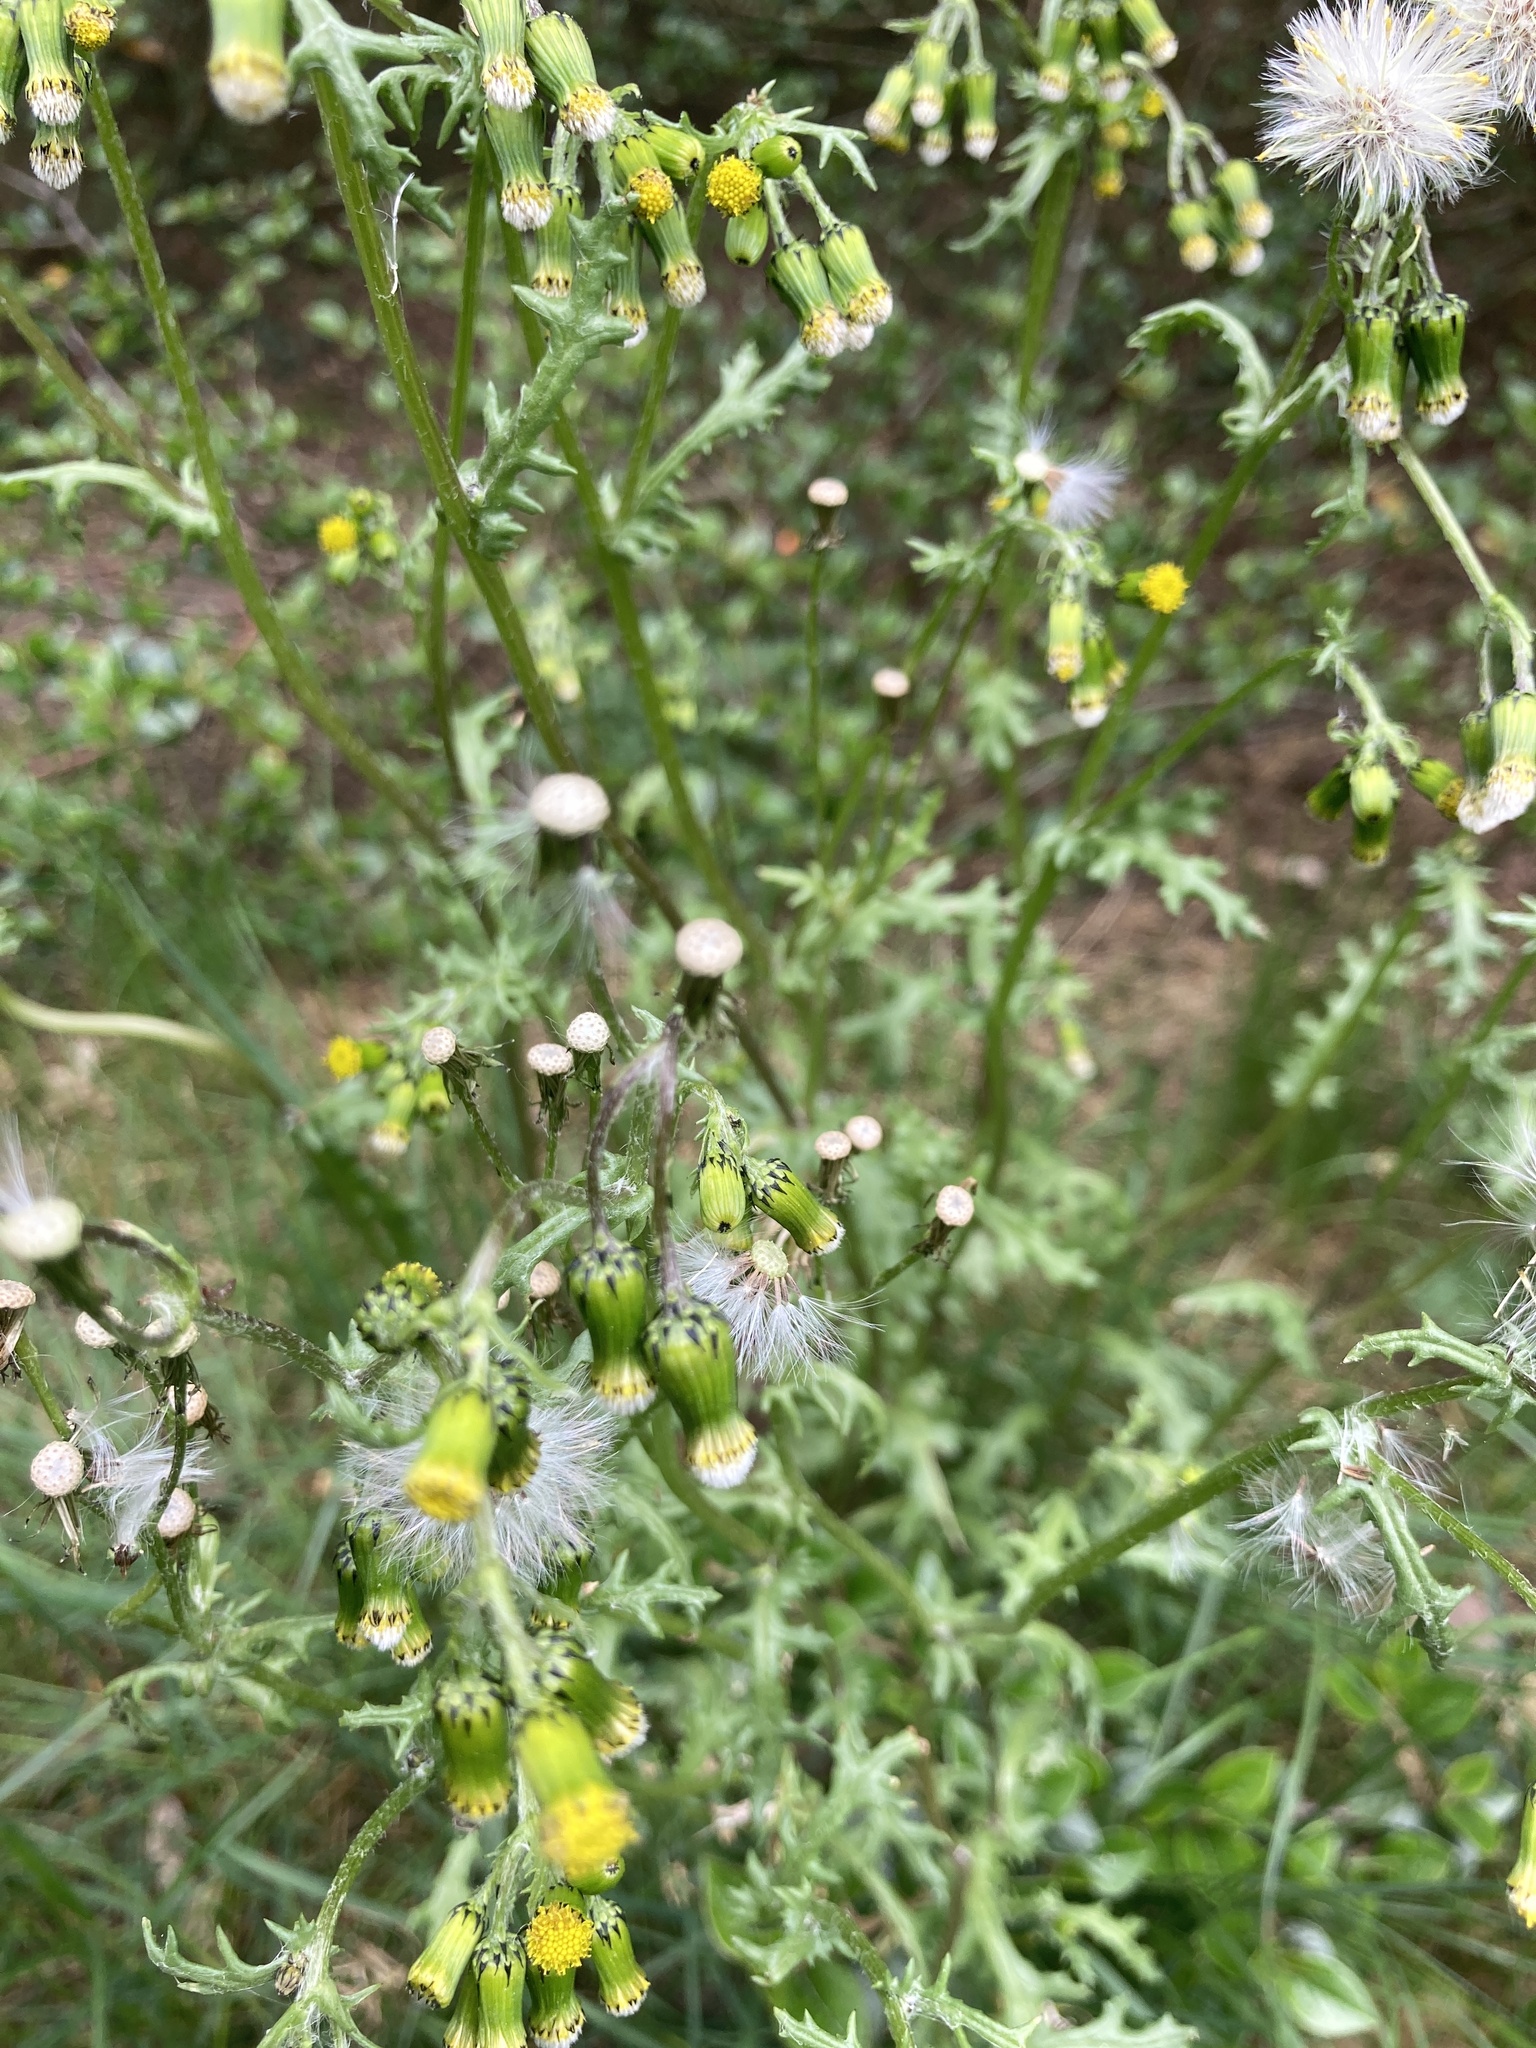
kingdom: Plantae
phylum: Tracheophyta
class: Magnoliopsida
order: Asterales
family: Asteraceae
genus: Senecio
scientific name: Senecio vulgaris
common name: Old-man-in-the-spring
